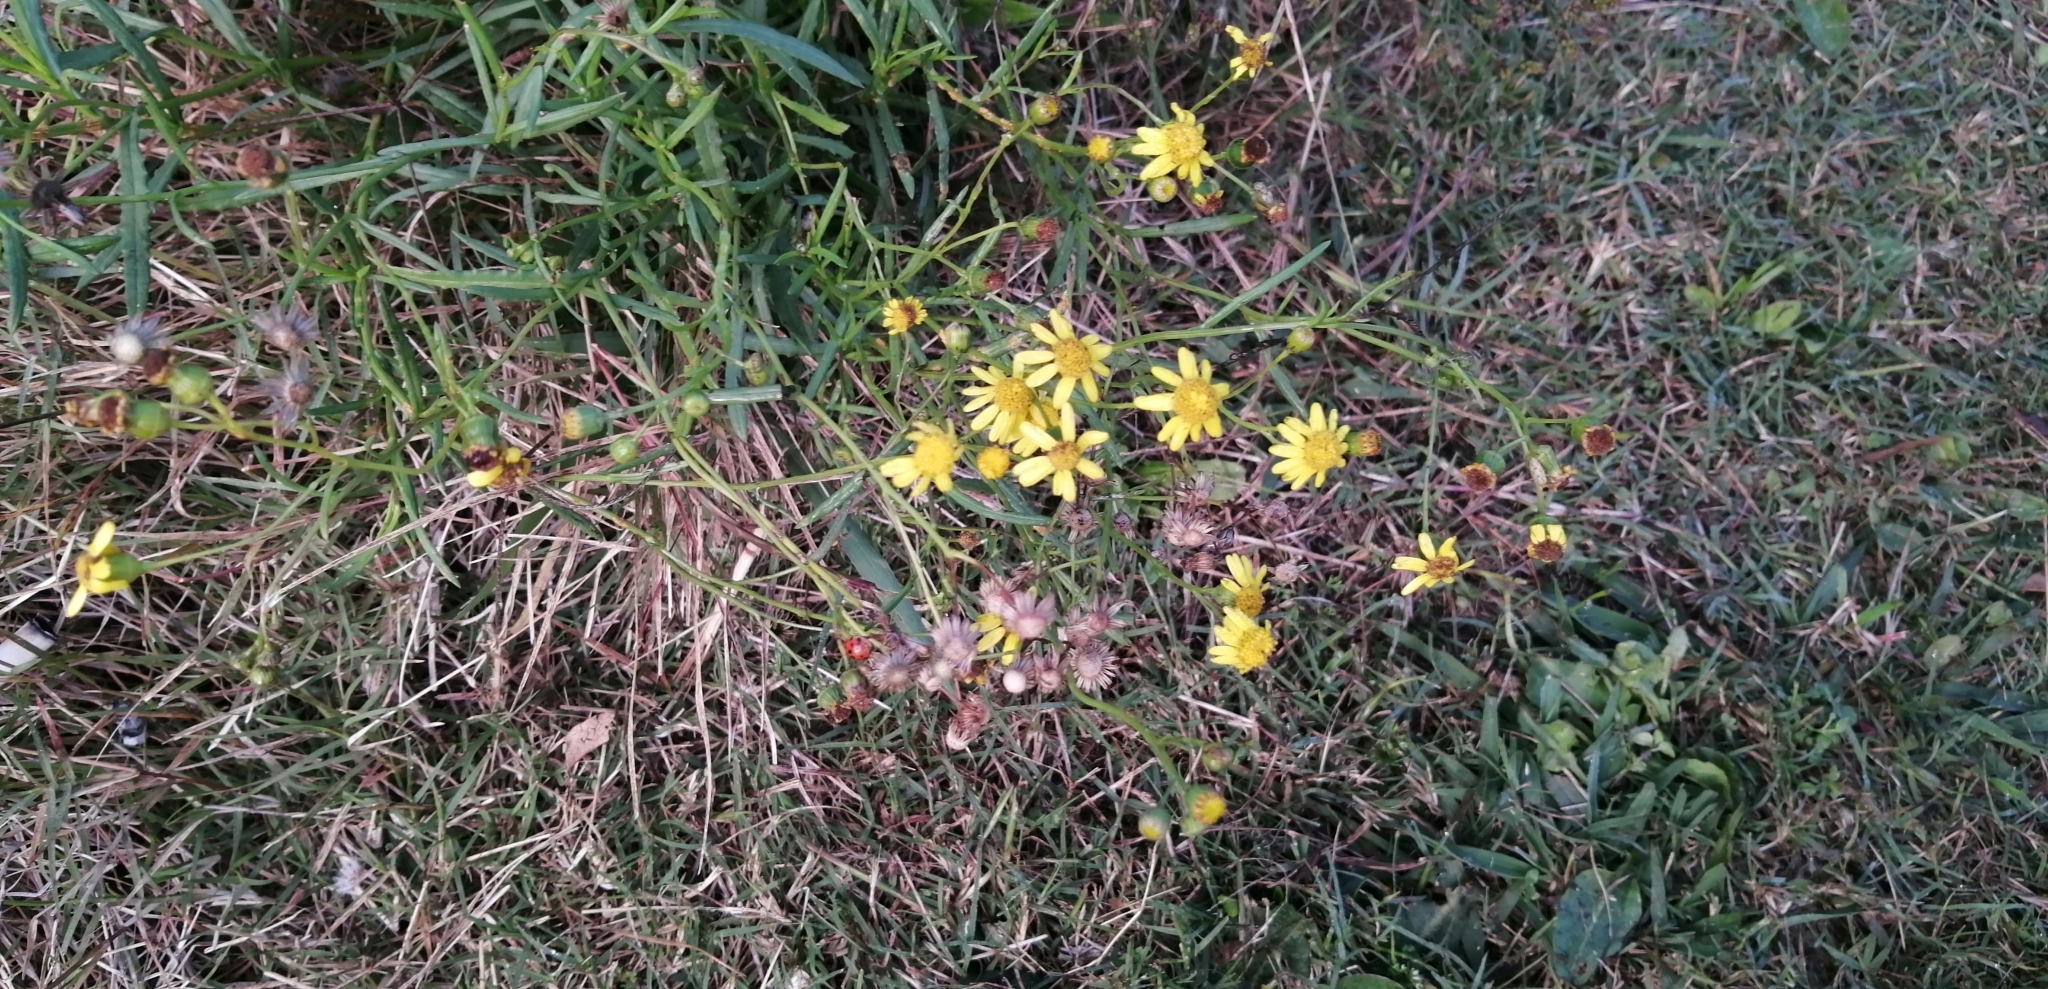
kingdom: Plantae
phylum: Tracheophyta
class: Magnoliopsida
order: Asterales
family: Asteraceae
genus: Senecio
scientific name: Senecio madagascariensis
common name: Madagascar ragwort
